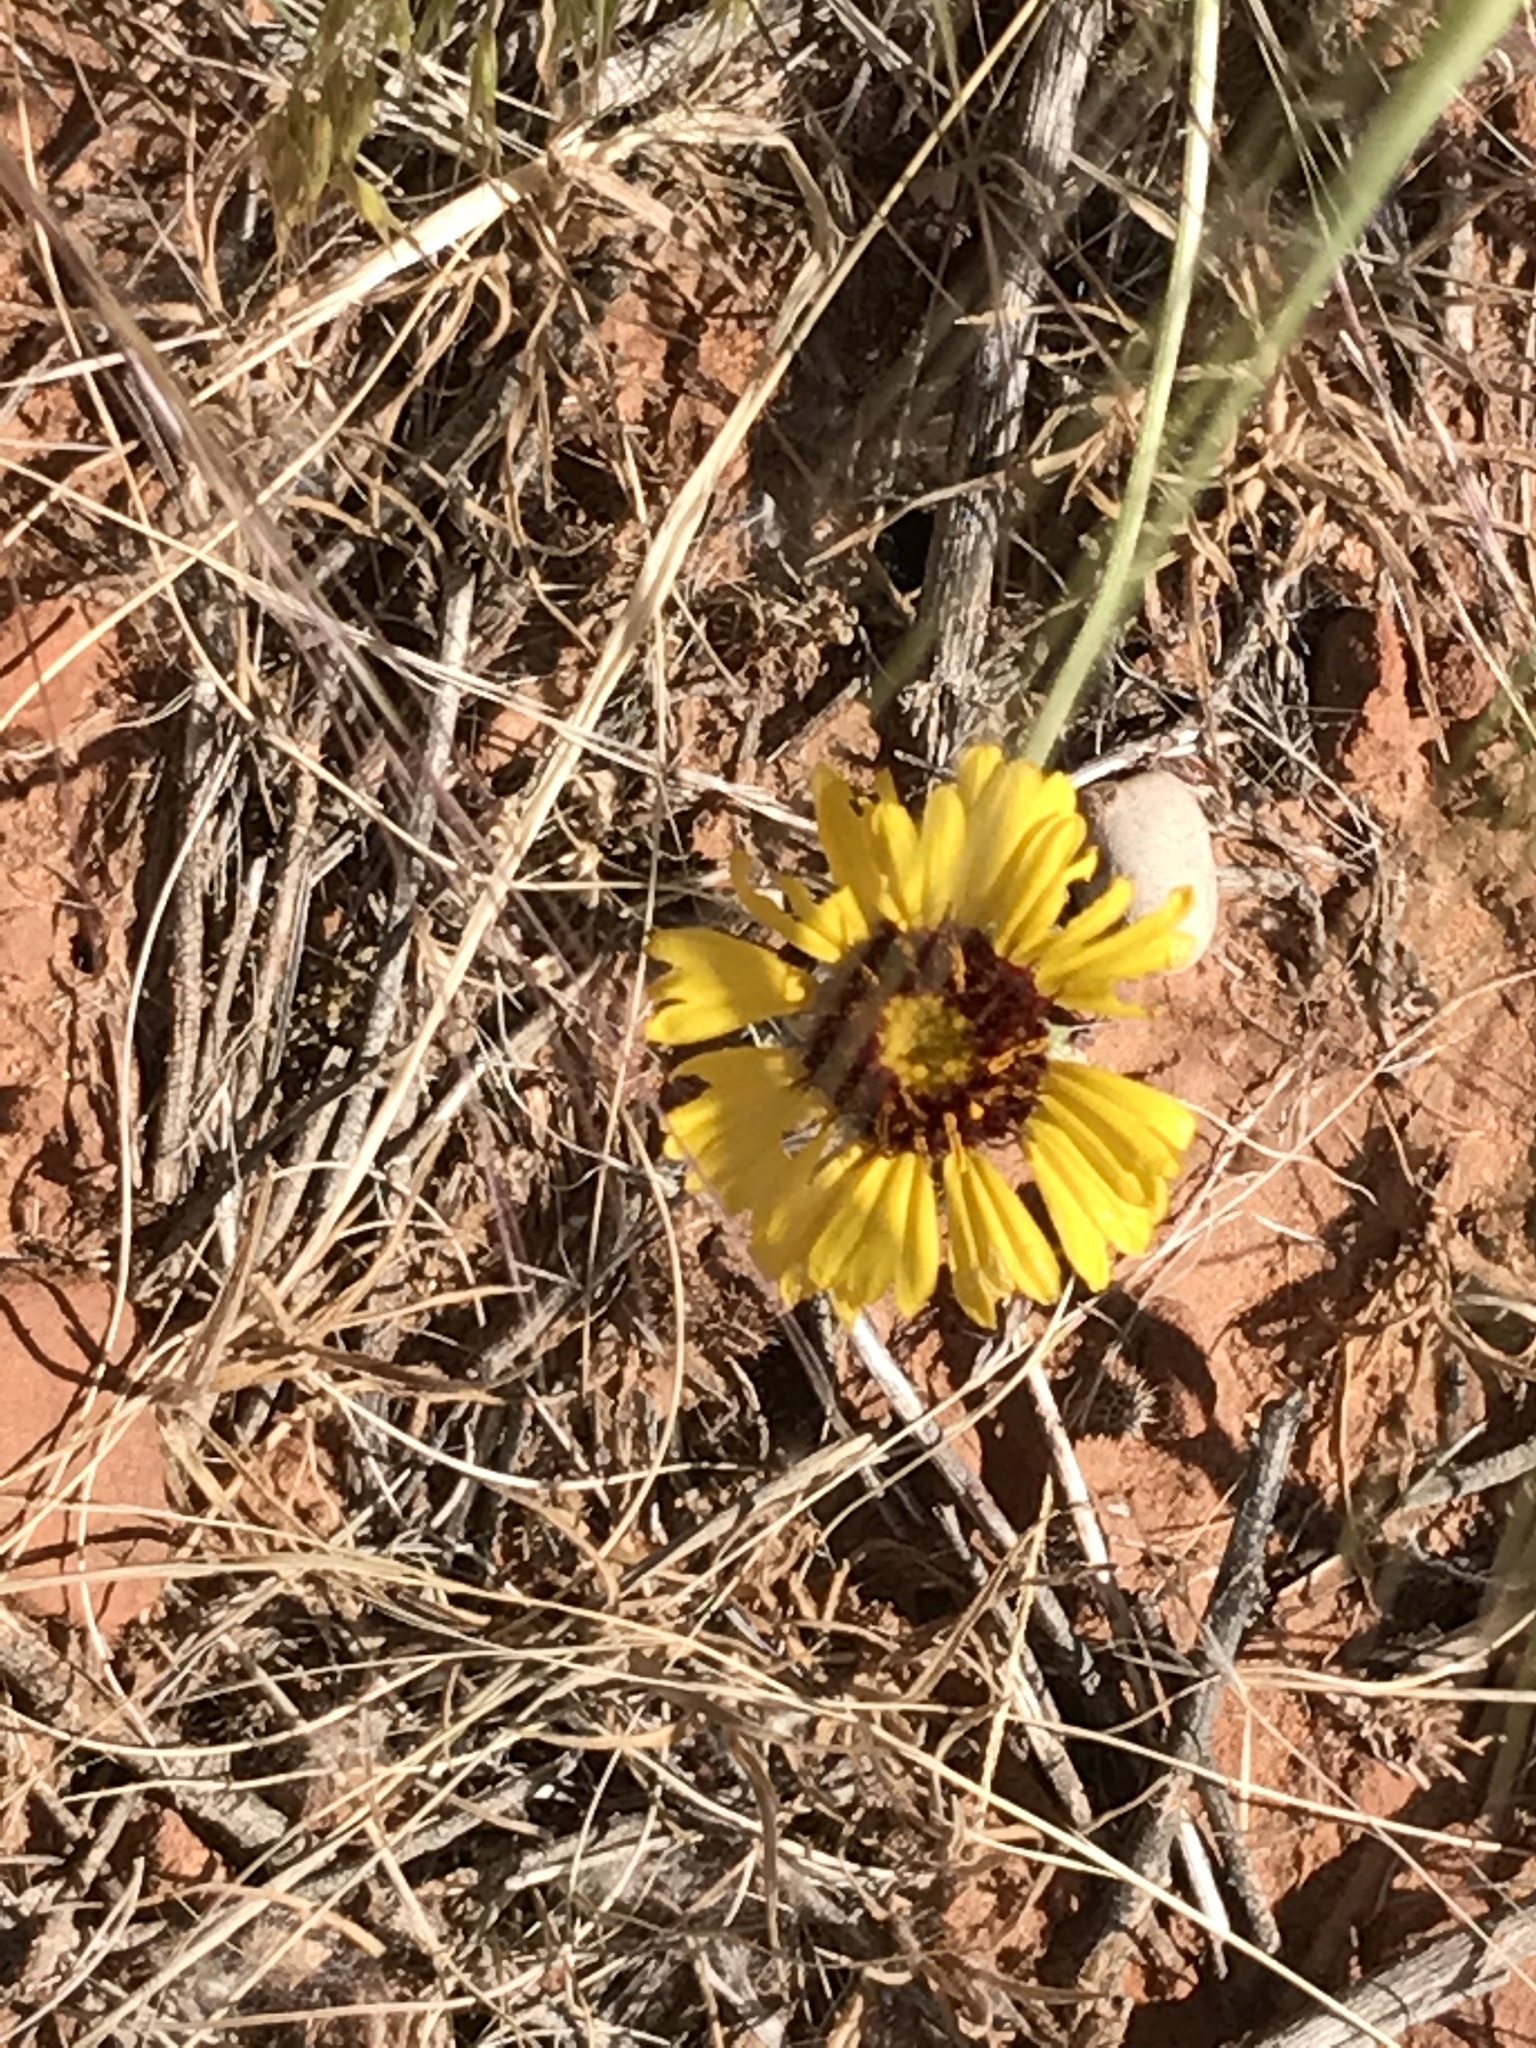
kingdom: Plantae
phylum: Tracheophyta
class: Magnoliopsida
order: Asterales
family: Asteraceae
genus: Gaillardia
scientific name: Gaillardia pinnatifida
